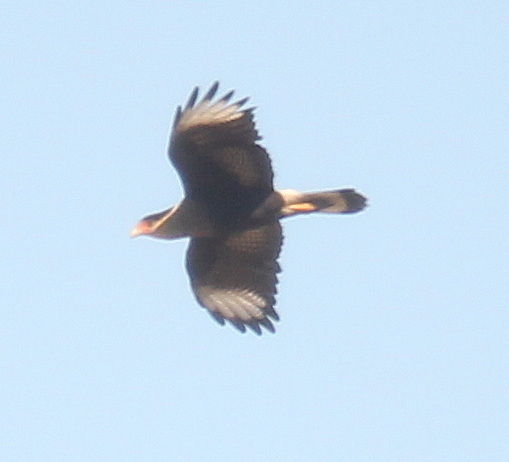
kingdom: Animalia
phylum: Chordata
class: Aves
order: Falconiformes
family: Falconidae
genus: Caracara
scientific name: Caracara plancus
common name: Southern caracara
